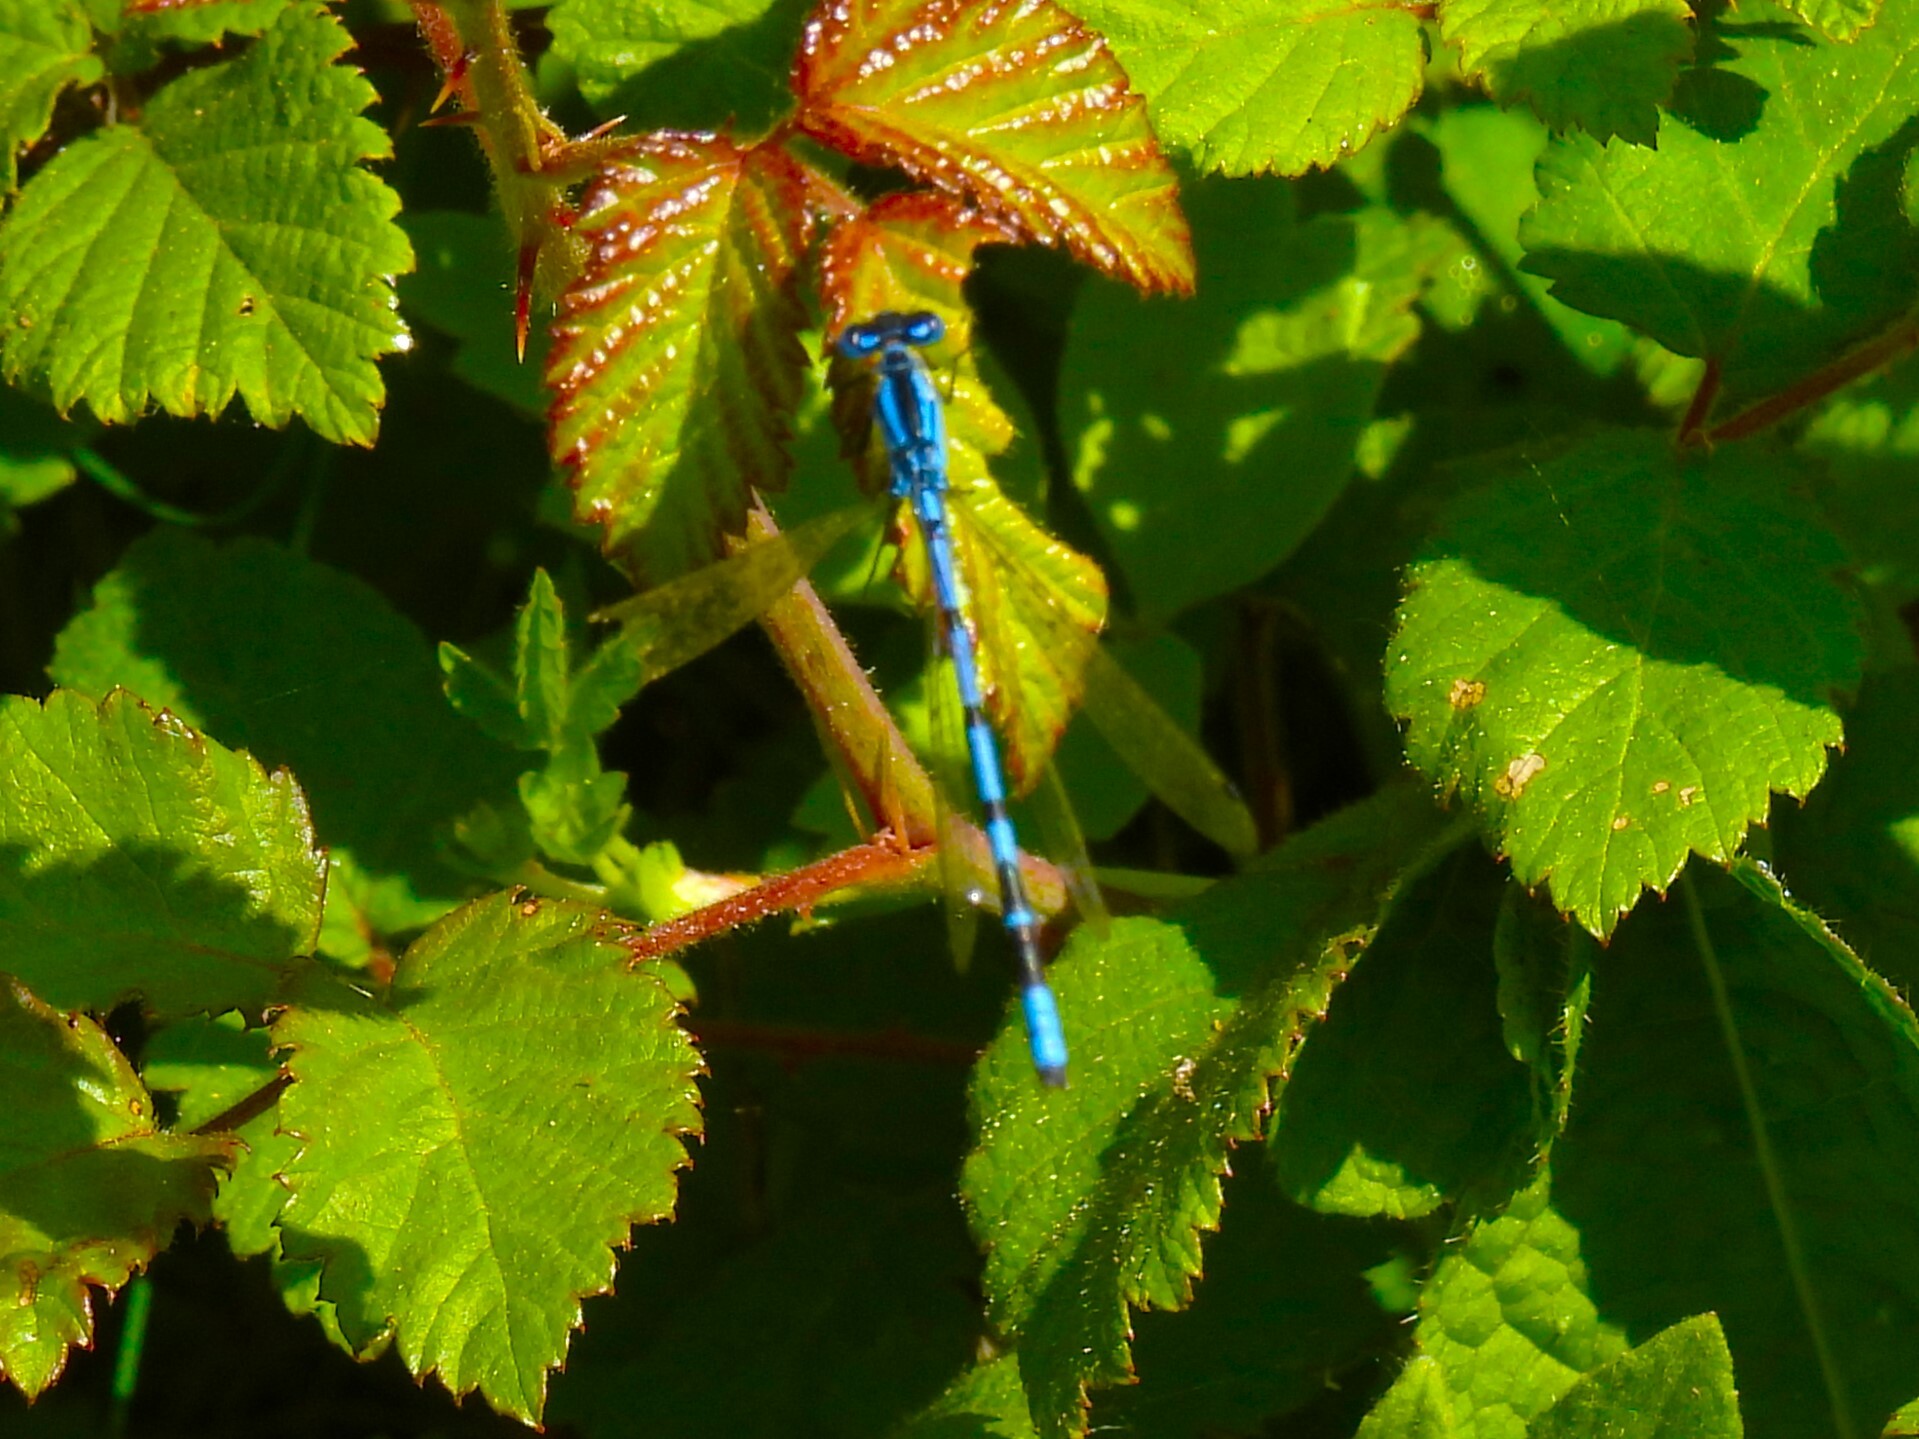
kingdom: Animalia
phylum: Arthropoda
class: Insecta
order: Odonata
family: Coenagrionidae
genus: Enallagma
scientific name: Enallagma cyathigerum
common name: Common blue damselfly
